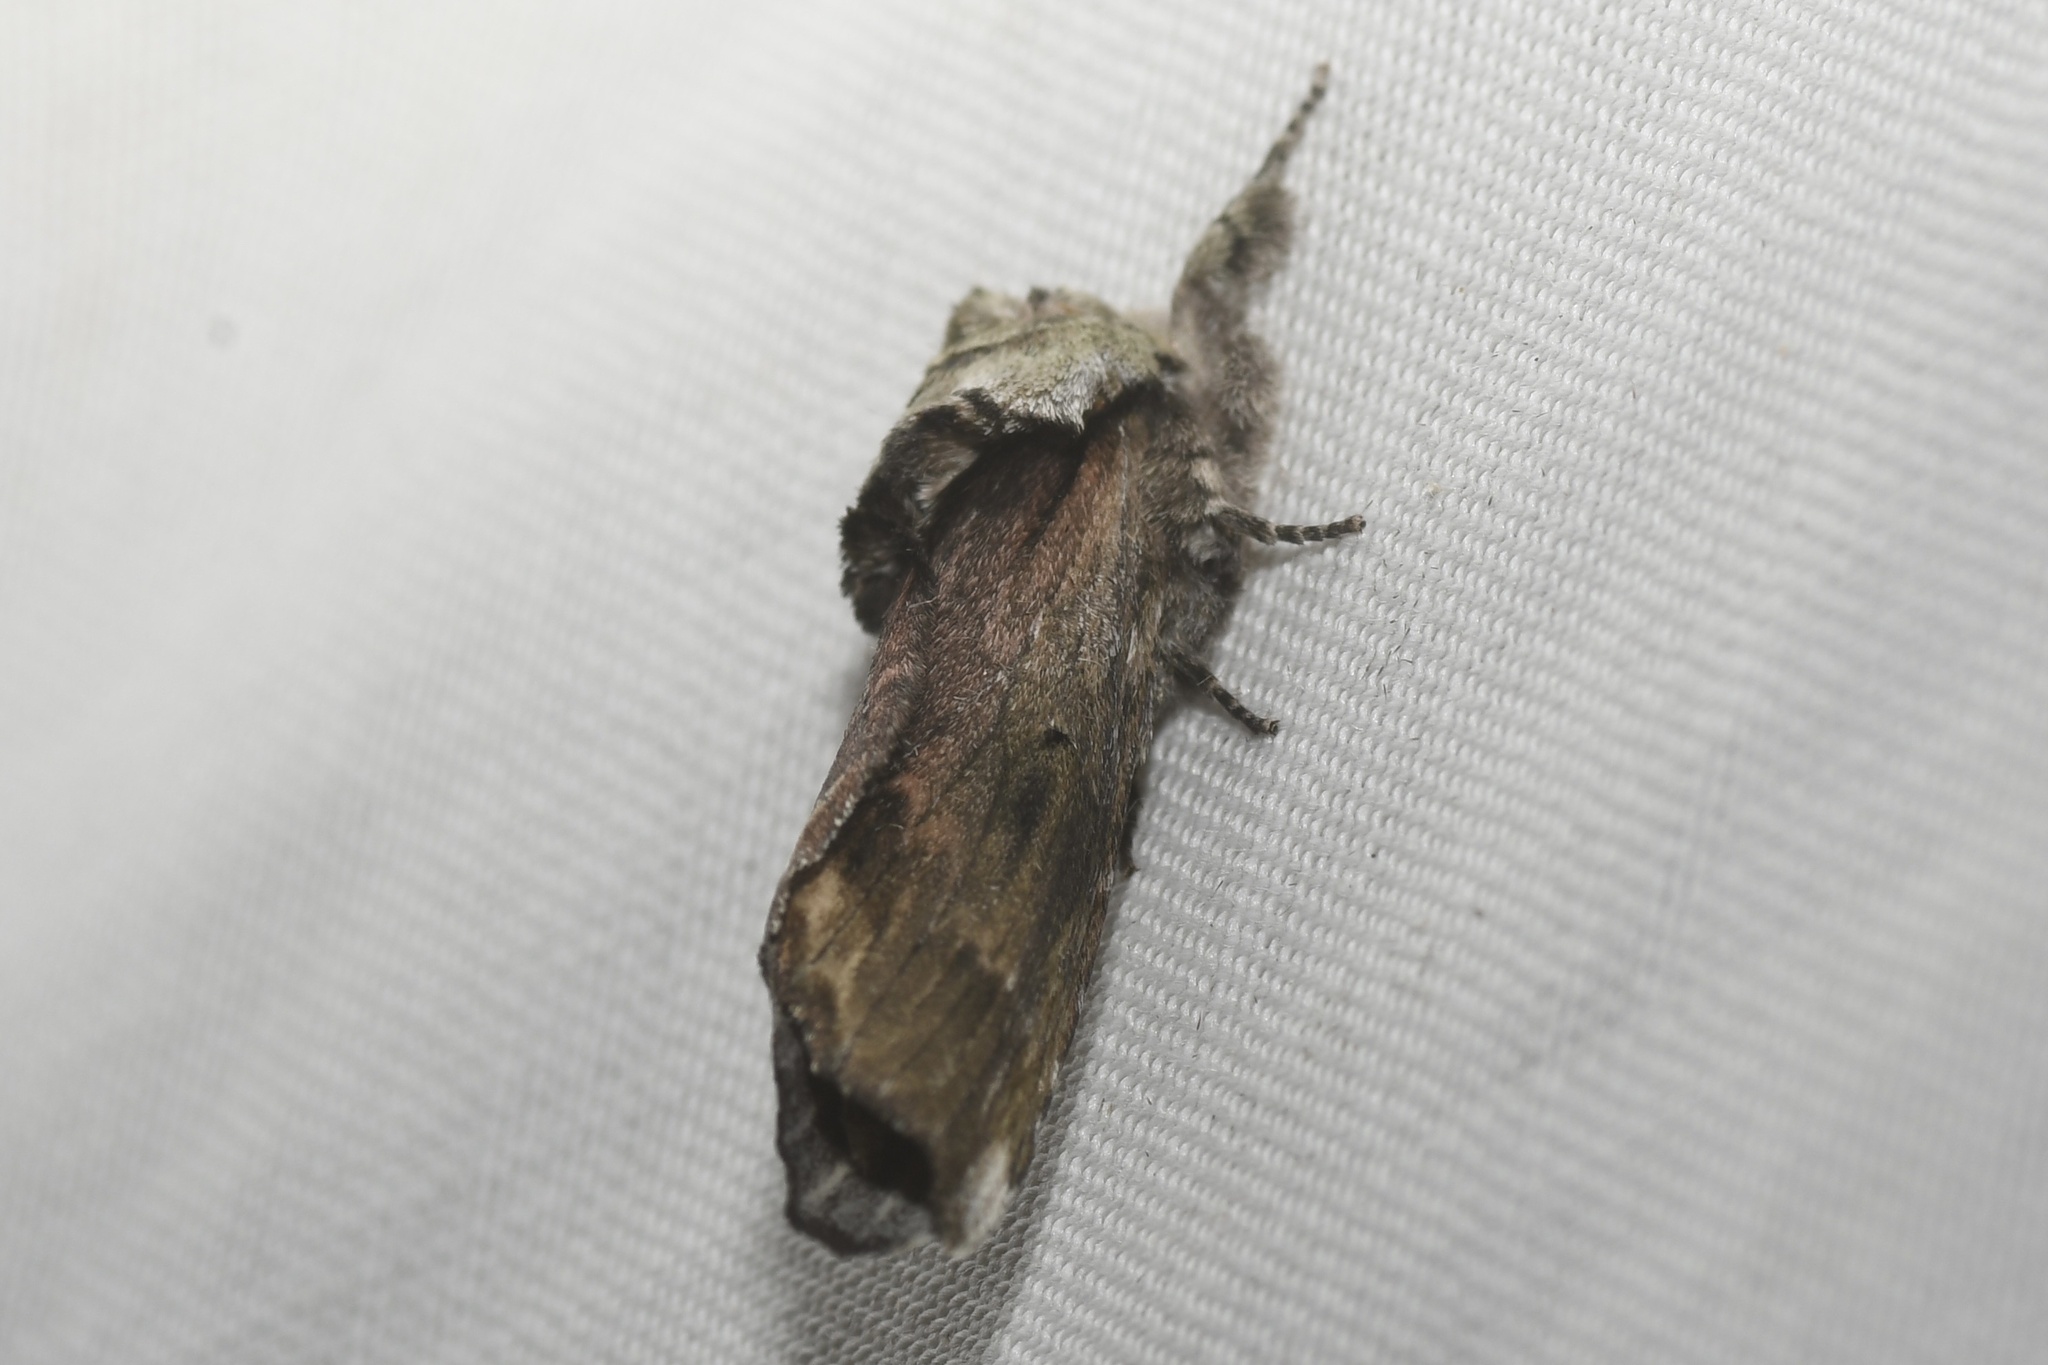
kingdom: Animalia
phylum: Arthropoda
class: Insecta
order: Lepidoptera
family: Notodontidae
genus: Schizura
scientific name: Schizura
